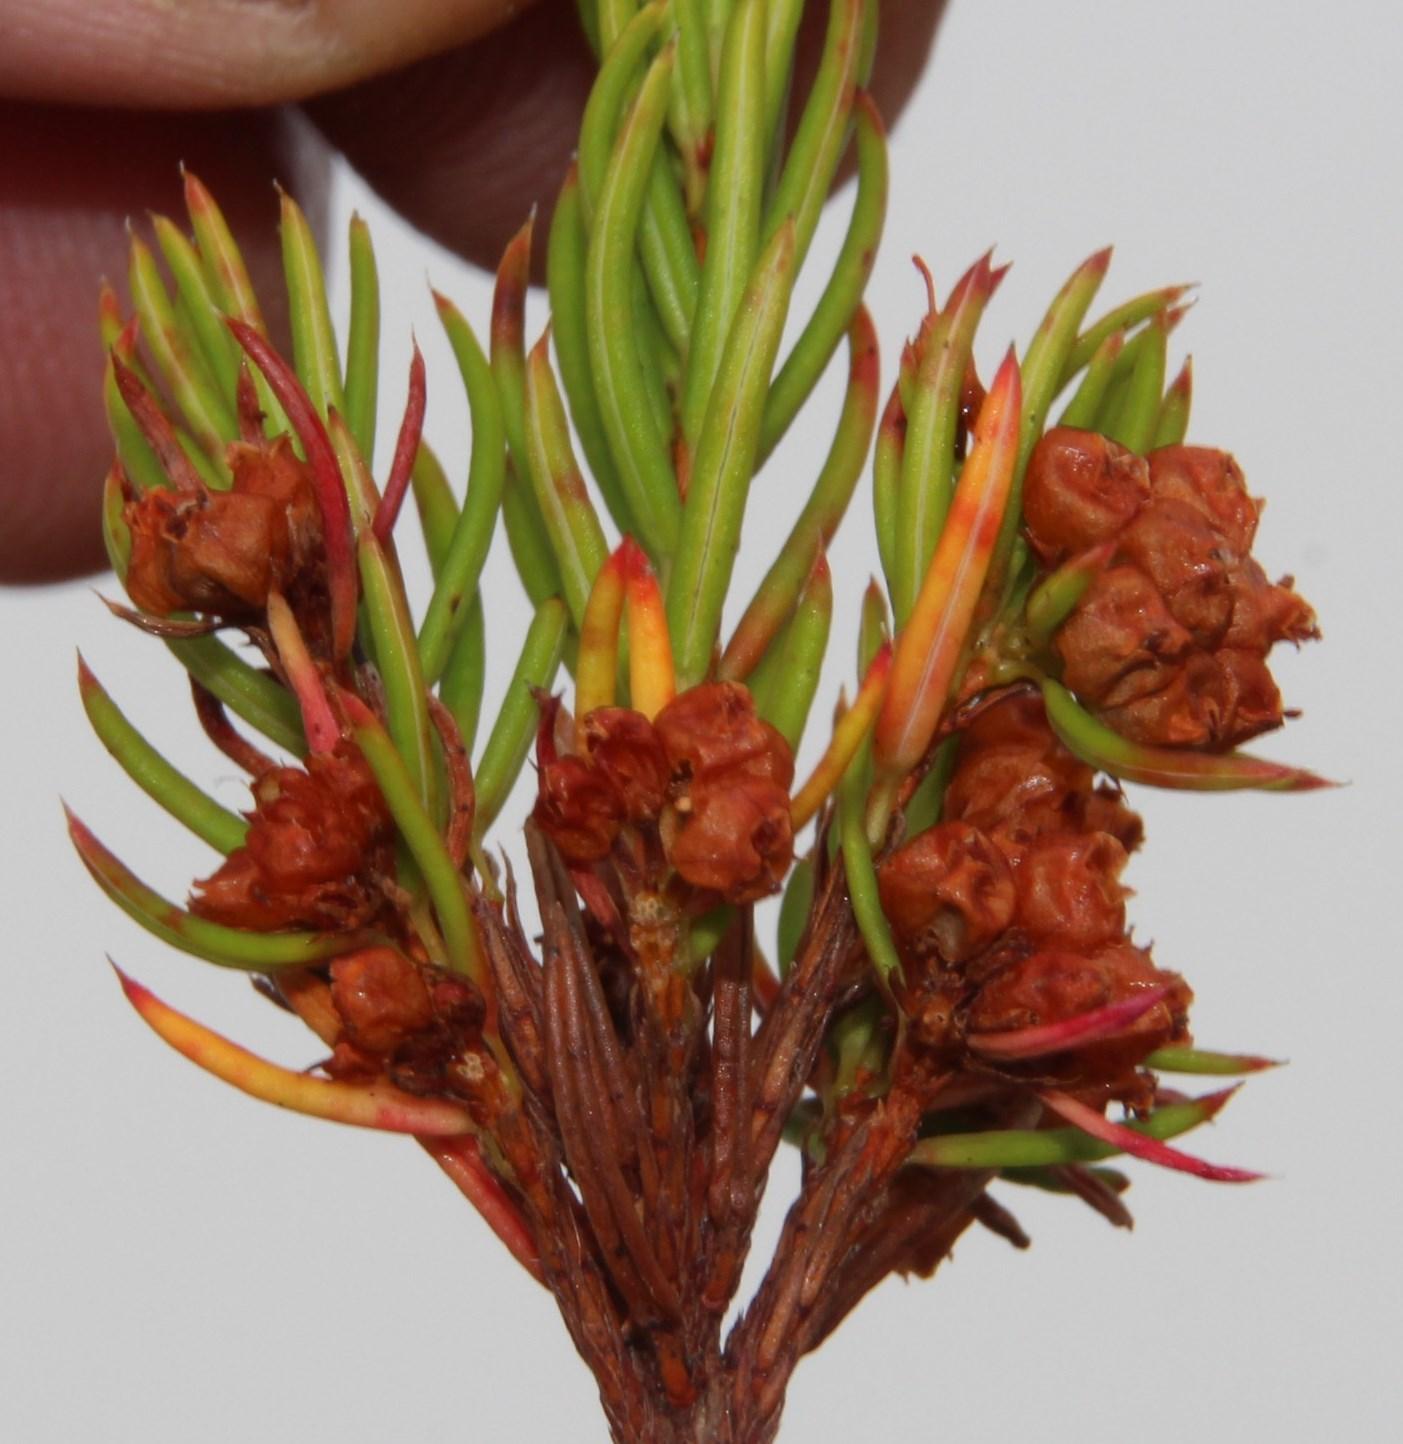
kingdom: Plantae
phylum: Tracheophyta
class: Magnoliopsida
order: Ericales
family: Ericaceae
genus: Erica
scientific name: Erica conferta
